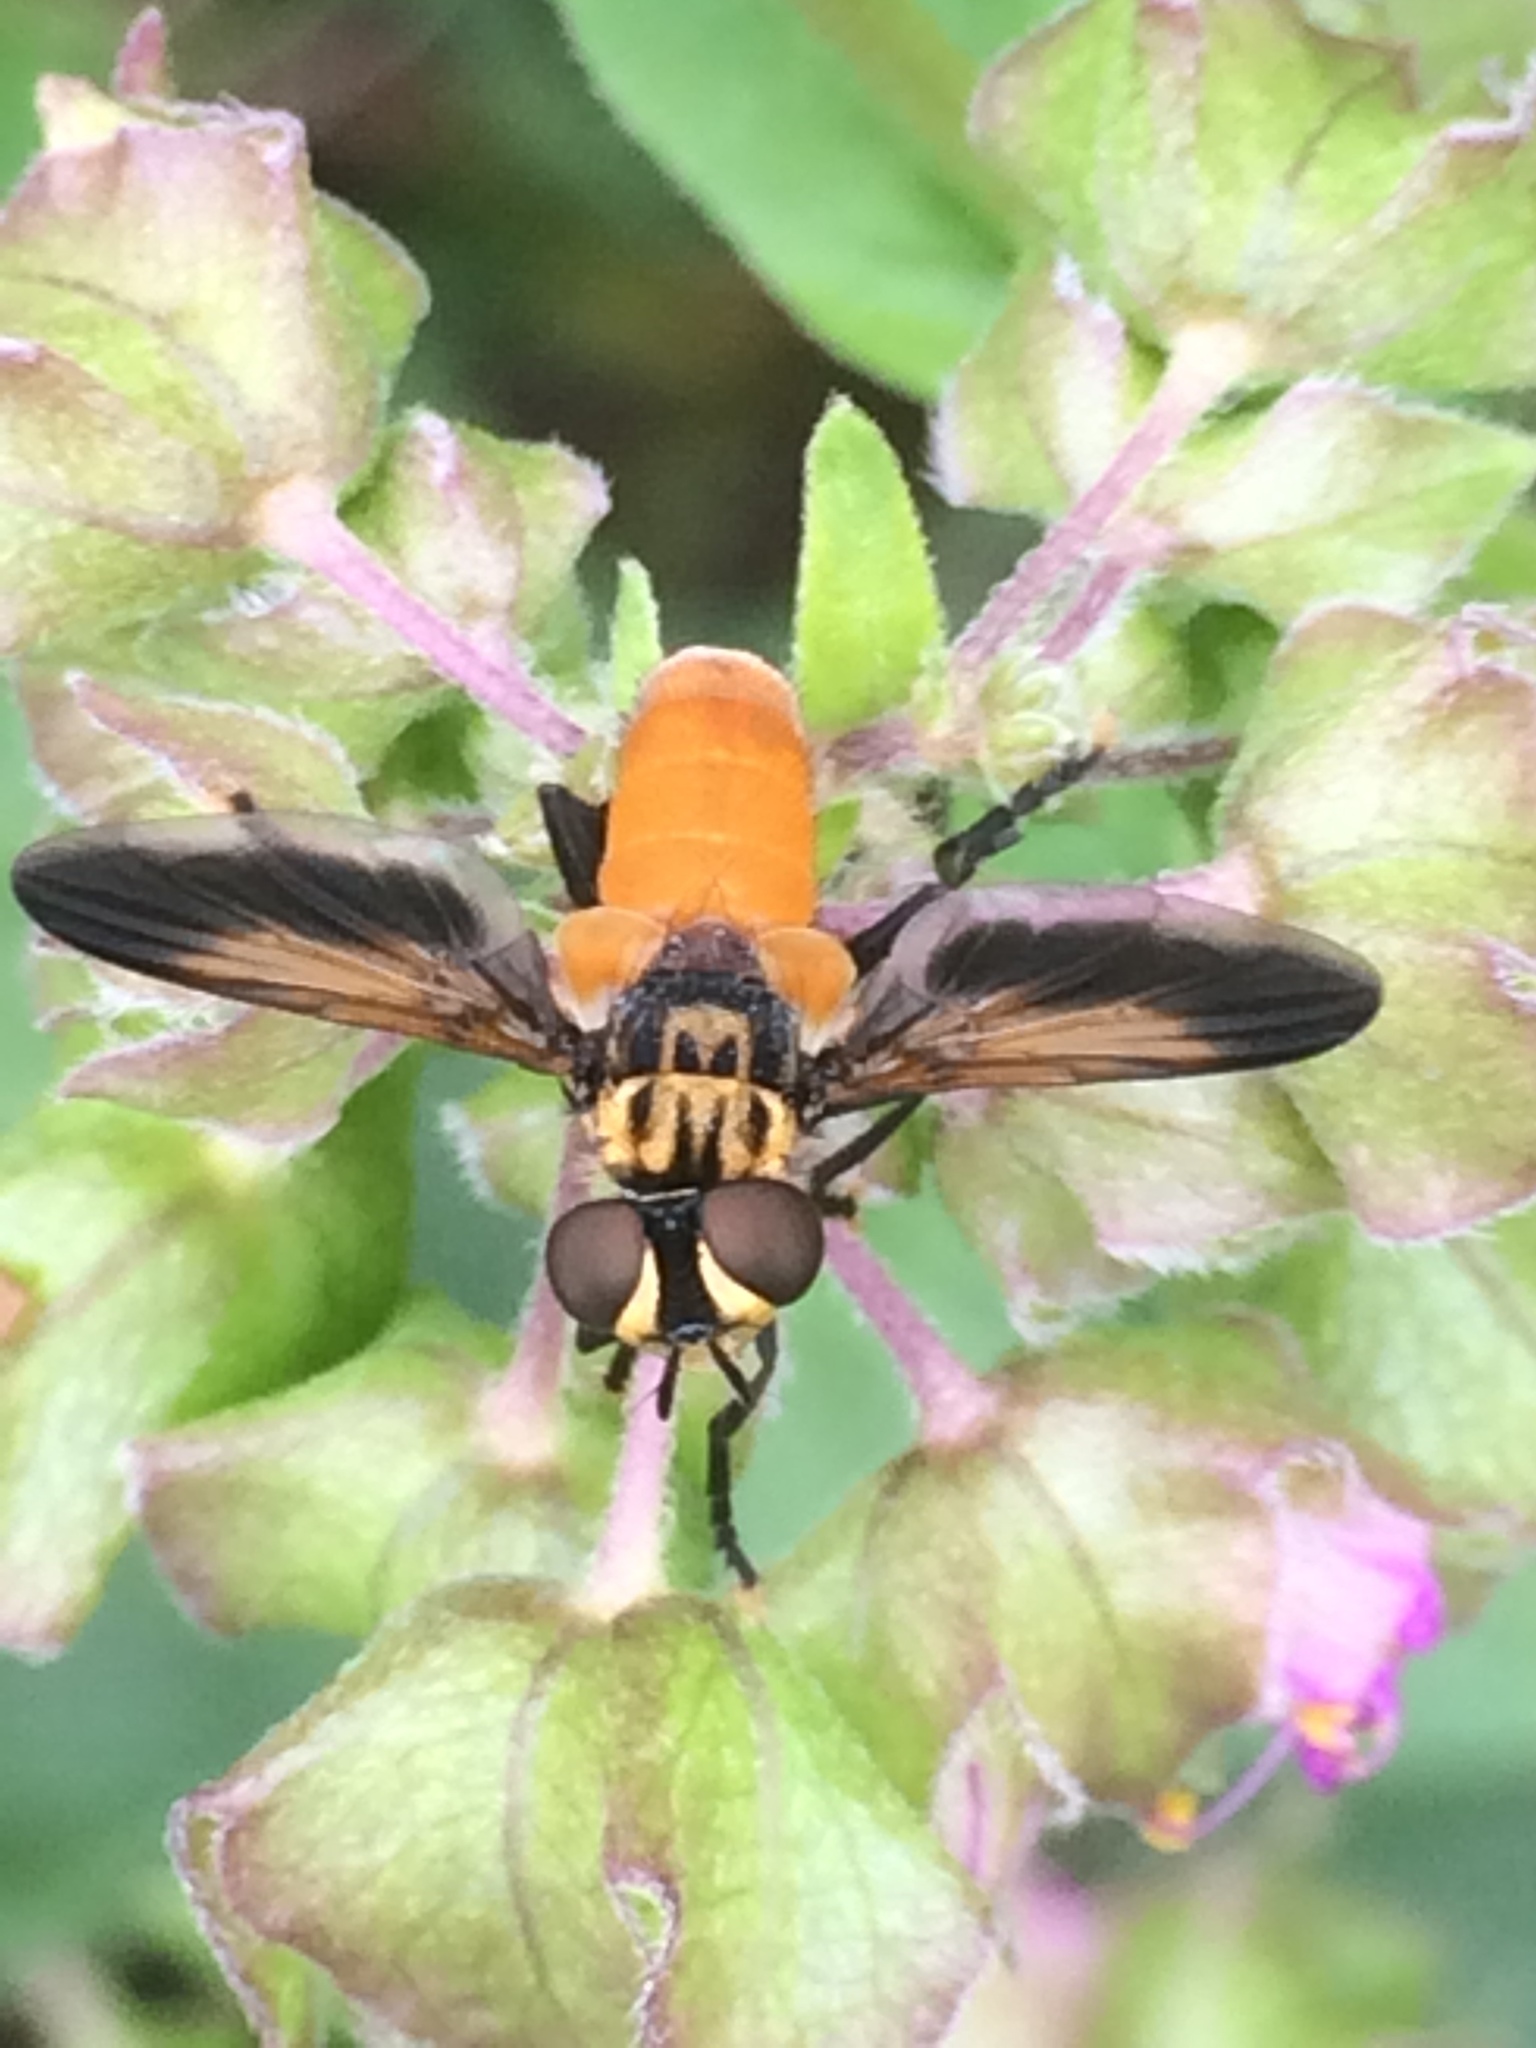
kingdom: Animalia
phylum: Arthropoda
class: Insecta
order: Diptera
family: Tachinidae
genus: Trichopoda
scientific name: Trichopoda pennipes
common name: Tachinid fly
